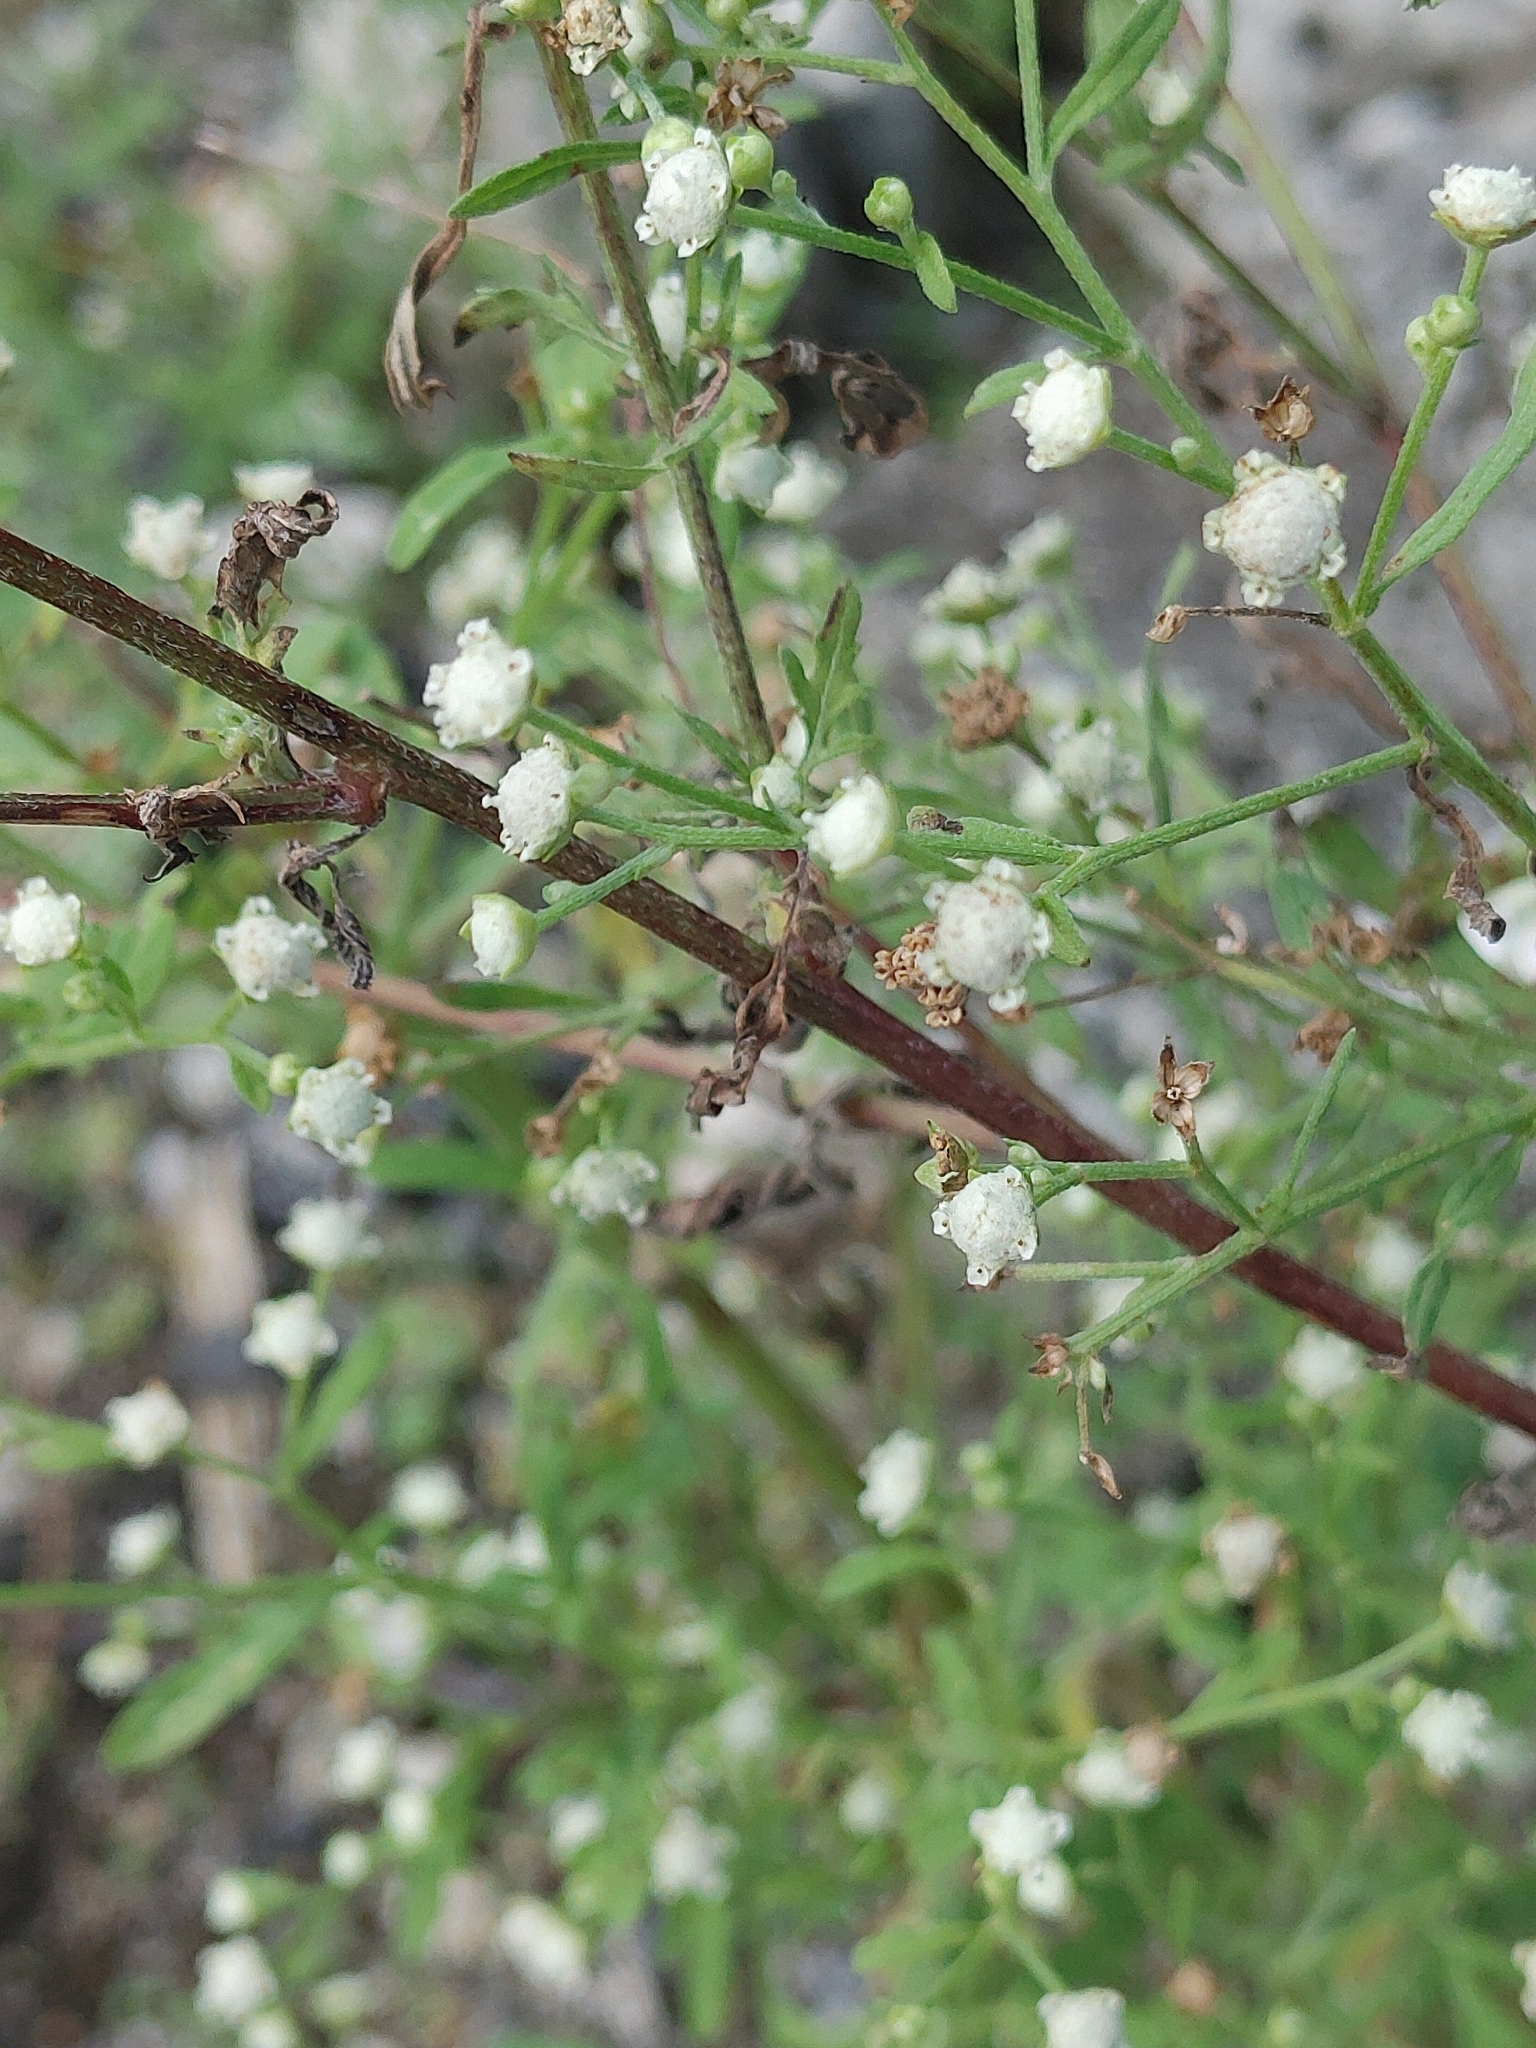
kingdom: Plantae
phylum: Tracheophyta
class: Magnoliopsida
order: Asterales
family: Asteraceae
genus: Parthenium
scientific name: Parthenium hysterophorus
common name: Santa maria feverfew
